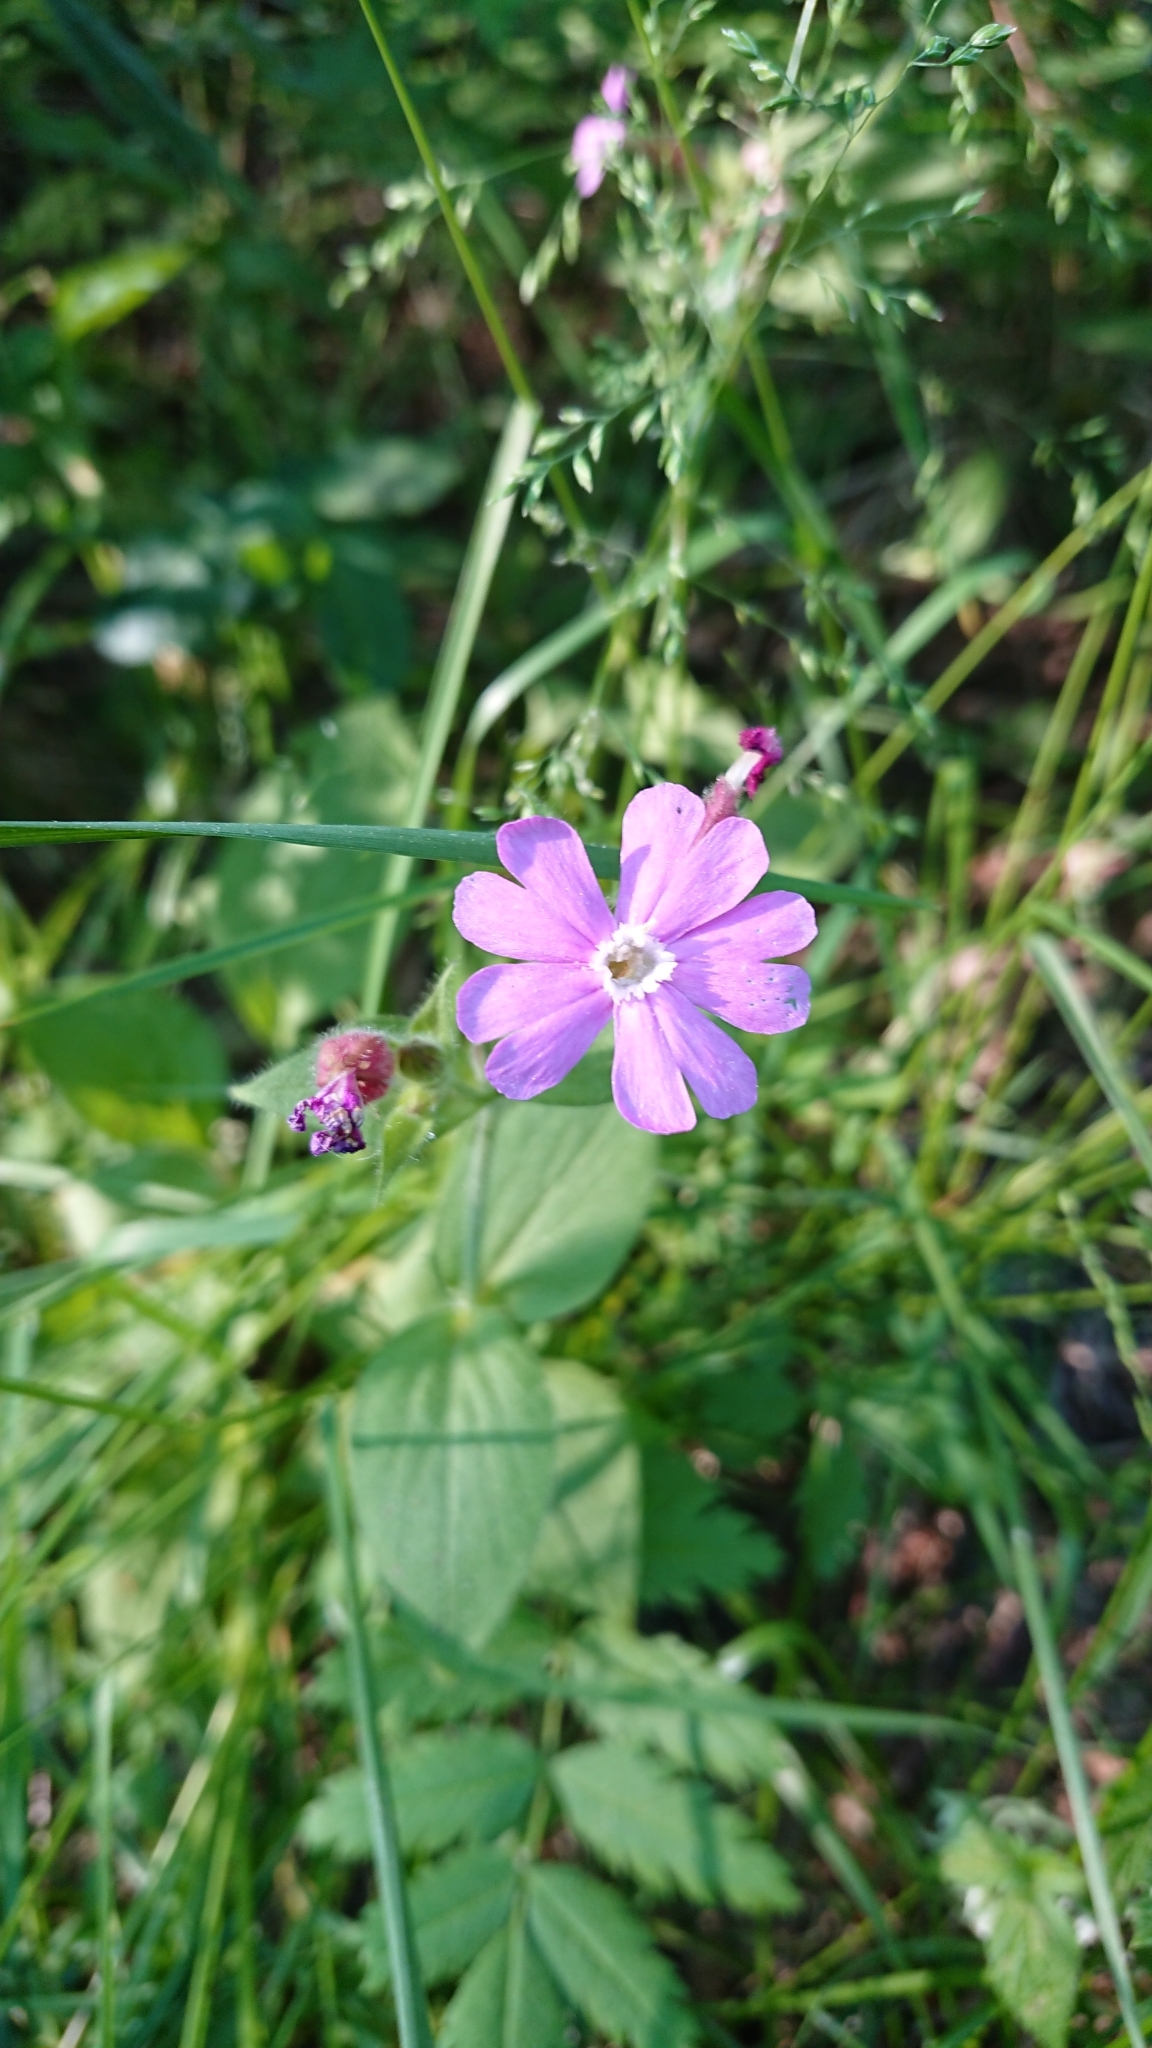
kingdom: Plantae
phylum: Tracheophyta
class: Magnoliopsida
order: Caryophyllales
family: Caryophyllaceae
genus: Silene
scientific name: Silene dioica
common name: Red campion
